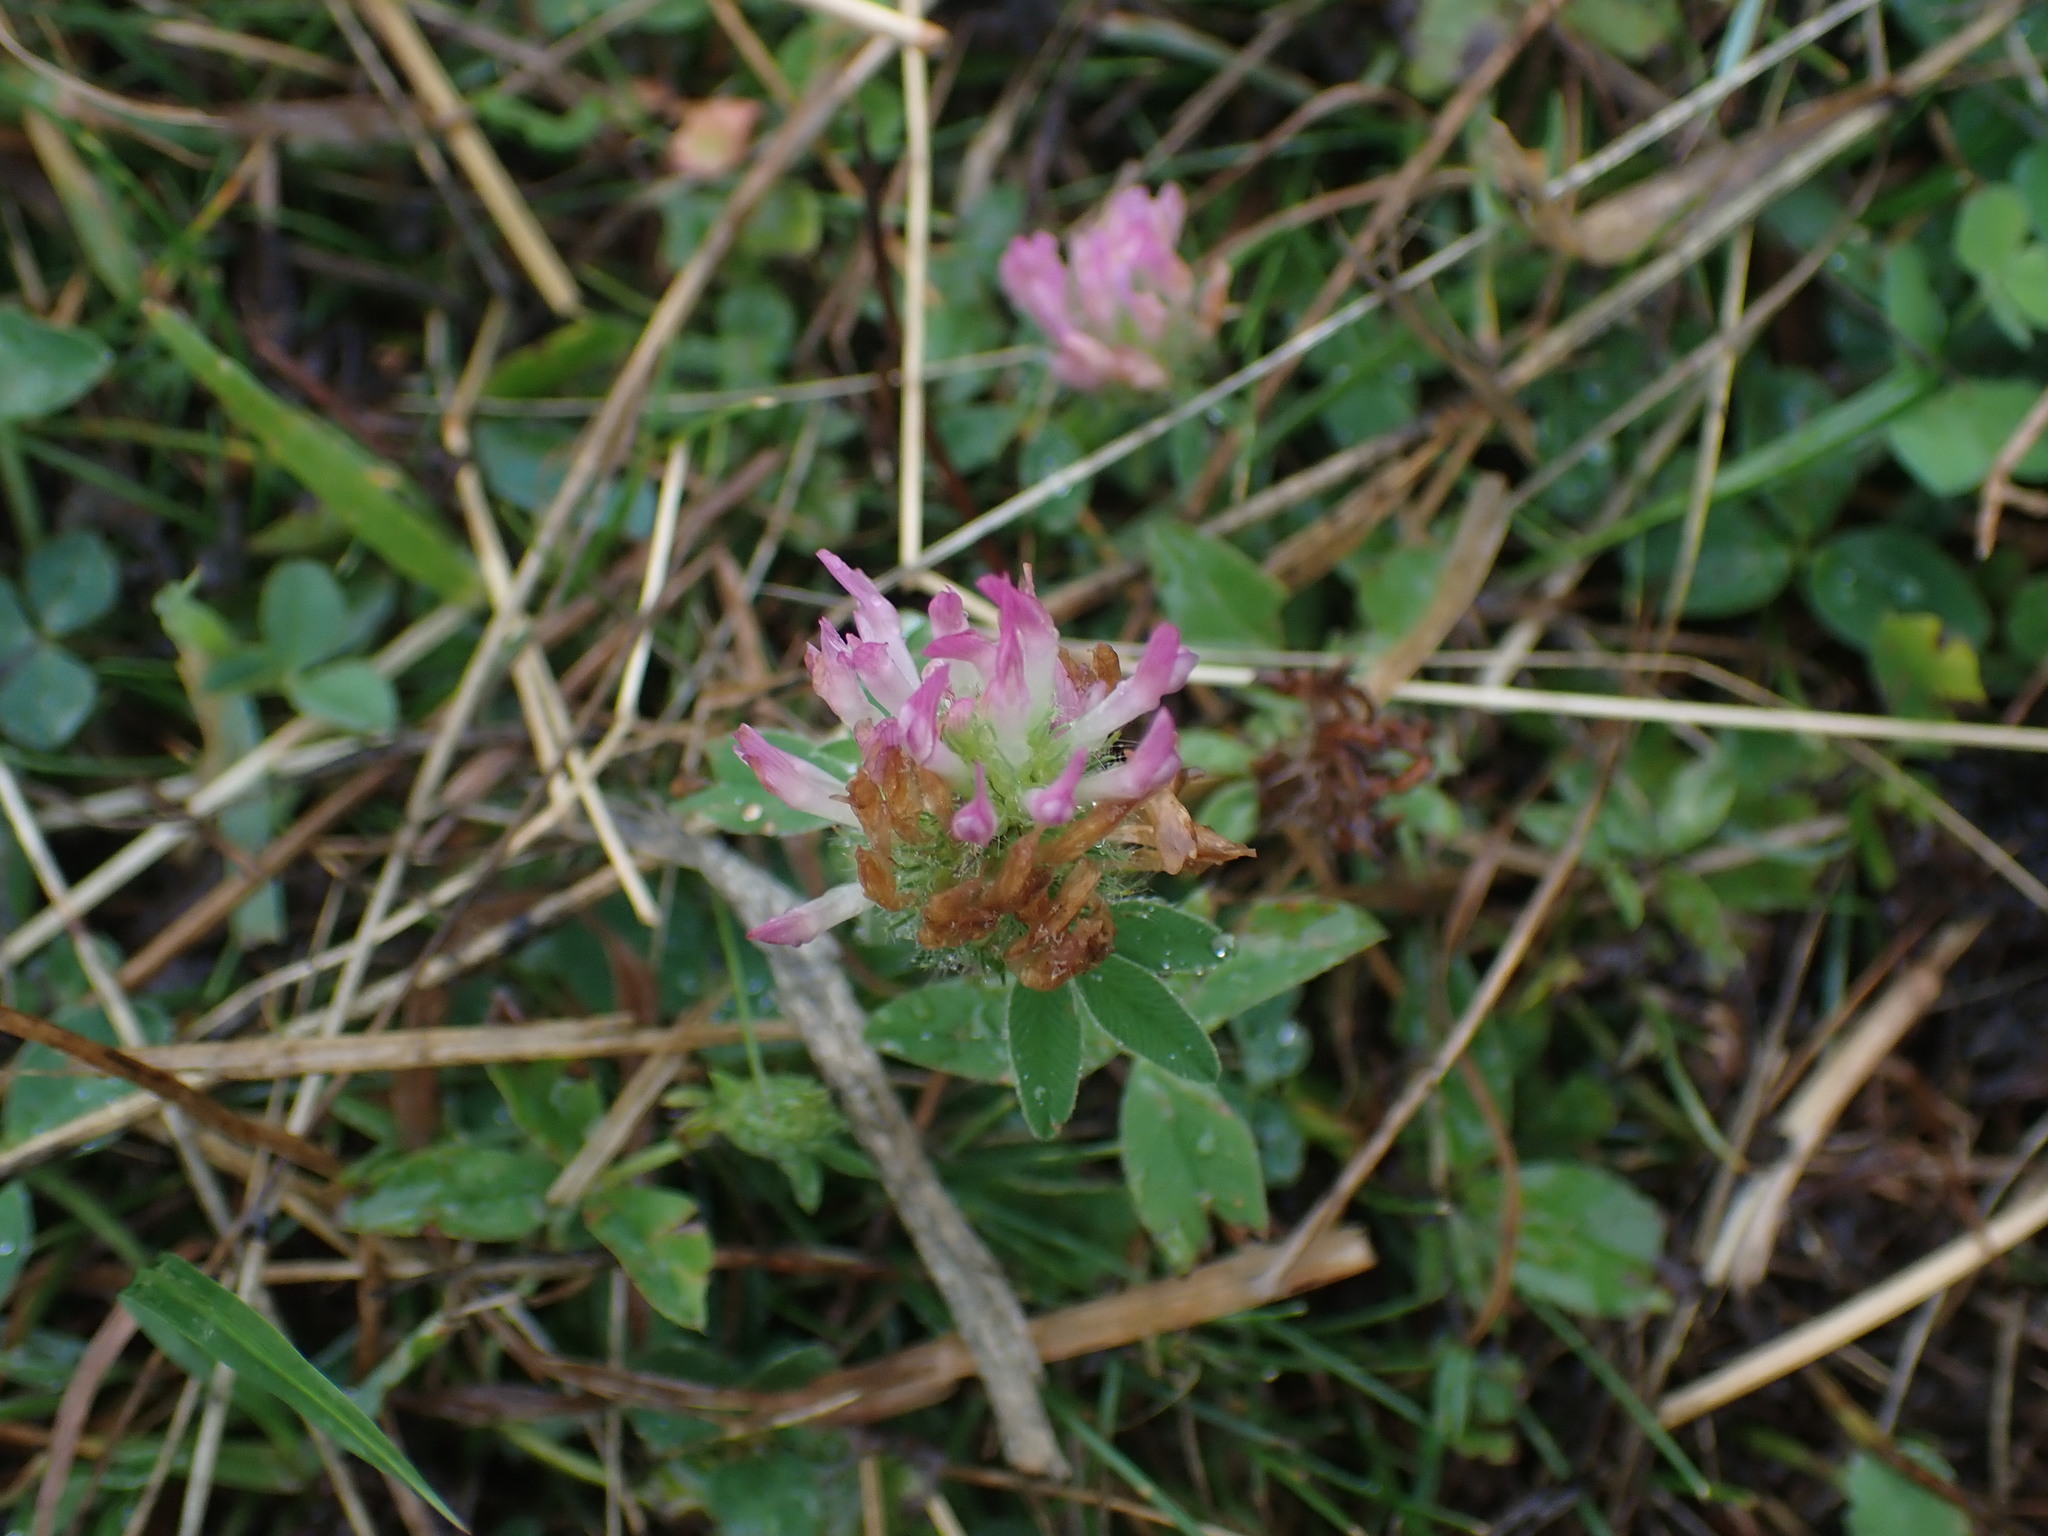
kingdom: Plantae
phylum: Tracheophyta
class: Magnoliopsida
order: Fabales
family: Fabaceae
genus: Trifolium
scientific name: Trifolium pratense
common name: Red clover
